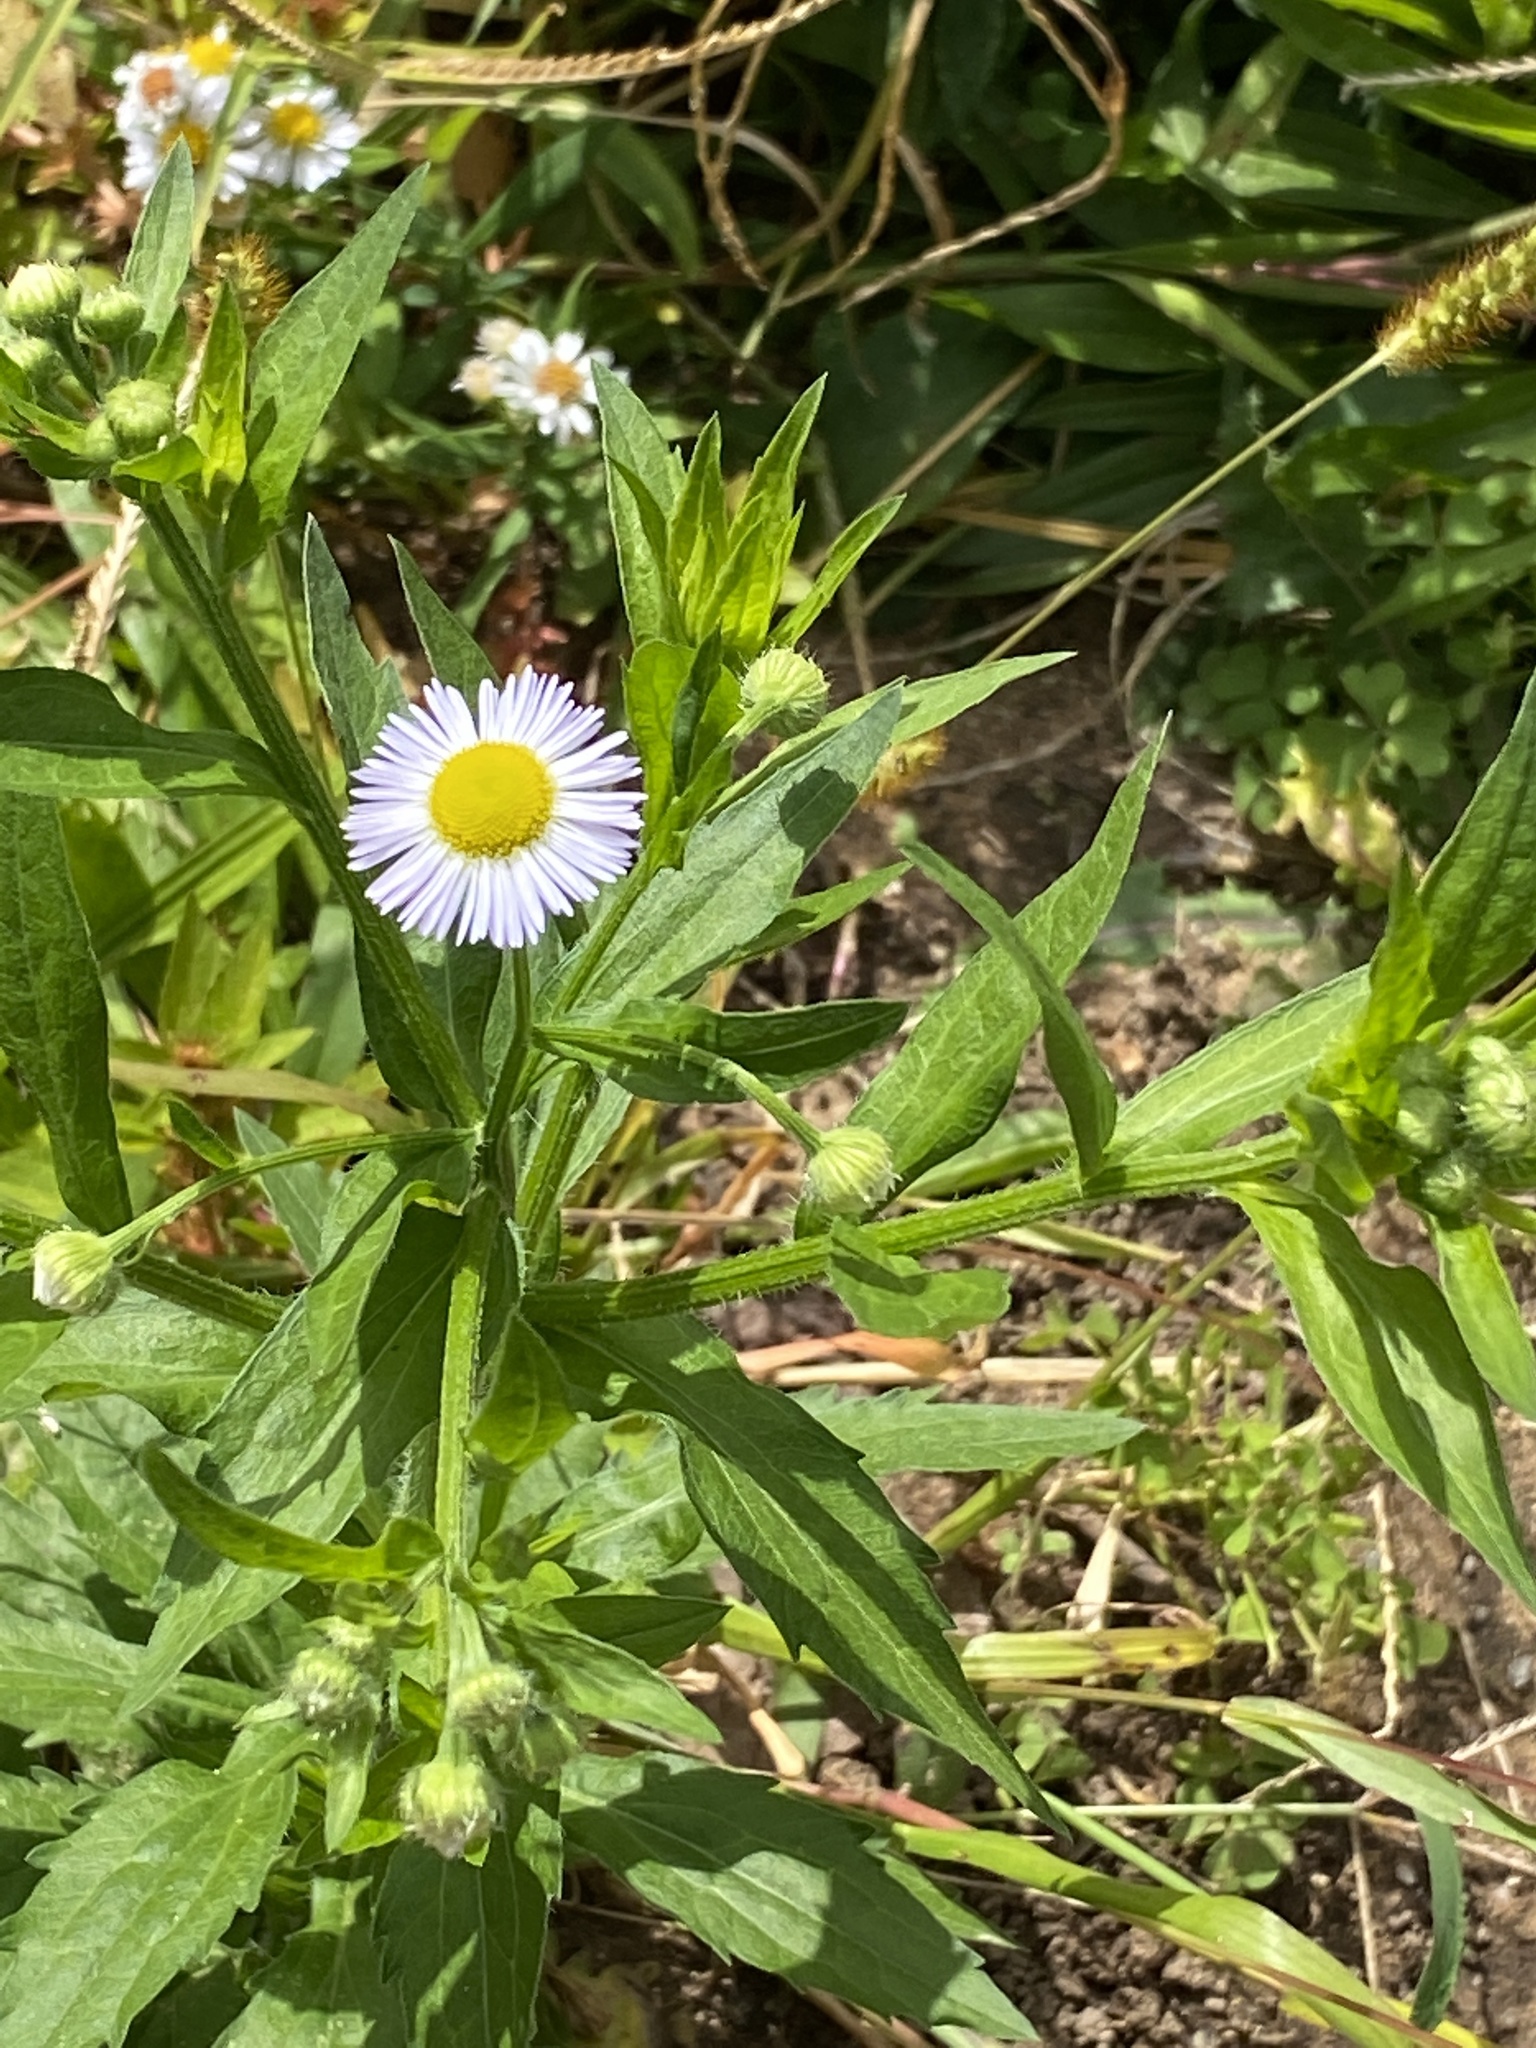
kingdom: Plantae
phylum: Tracheophyta
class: Magnoliopsida
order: Asterales
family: Asteraceae
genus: Erigeron
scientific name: Erigeron annuus
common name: Tall fleabane
